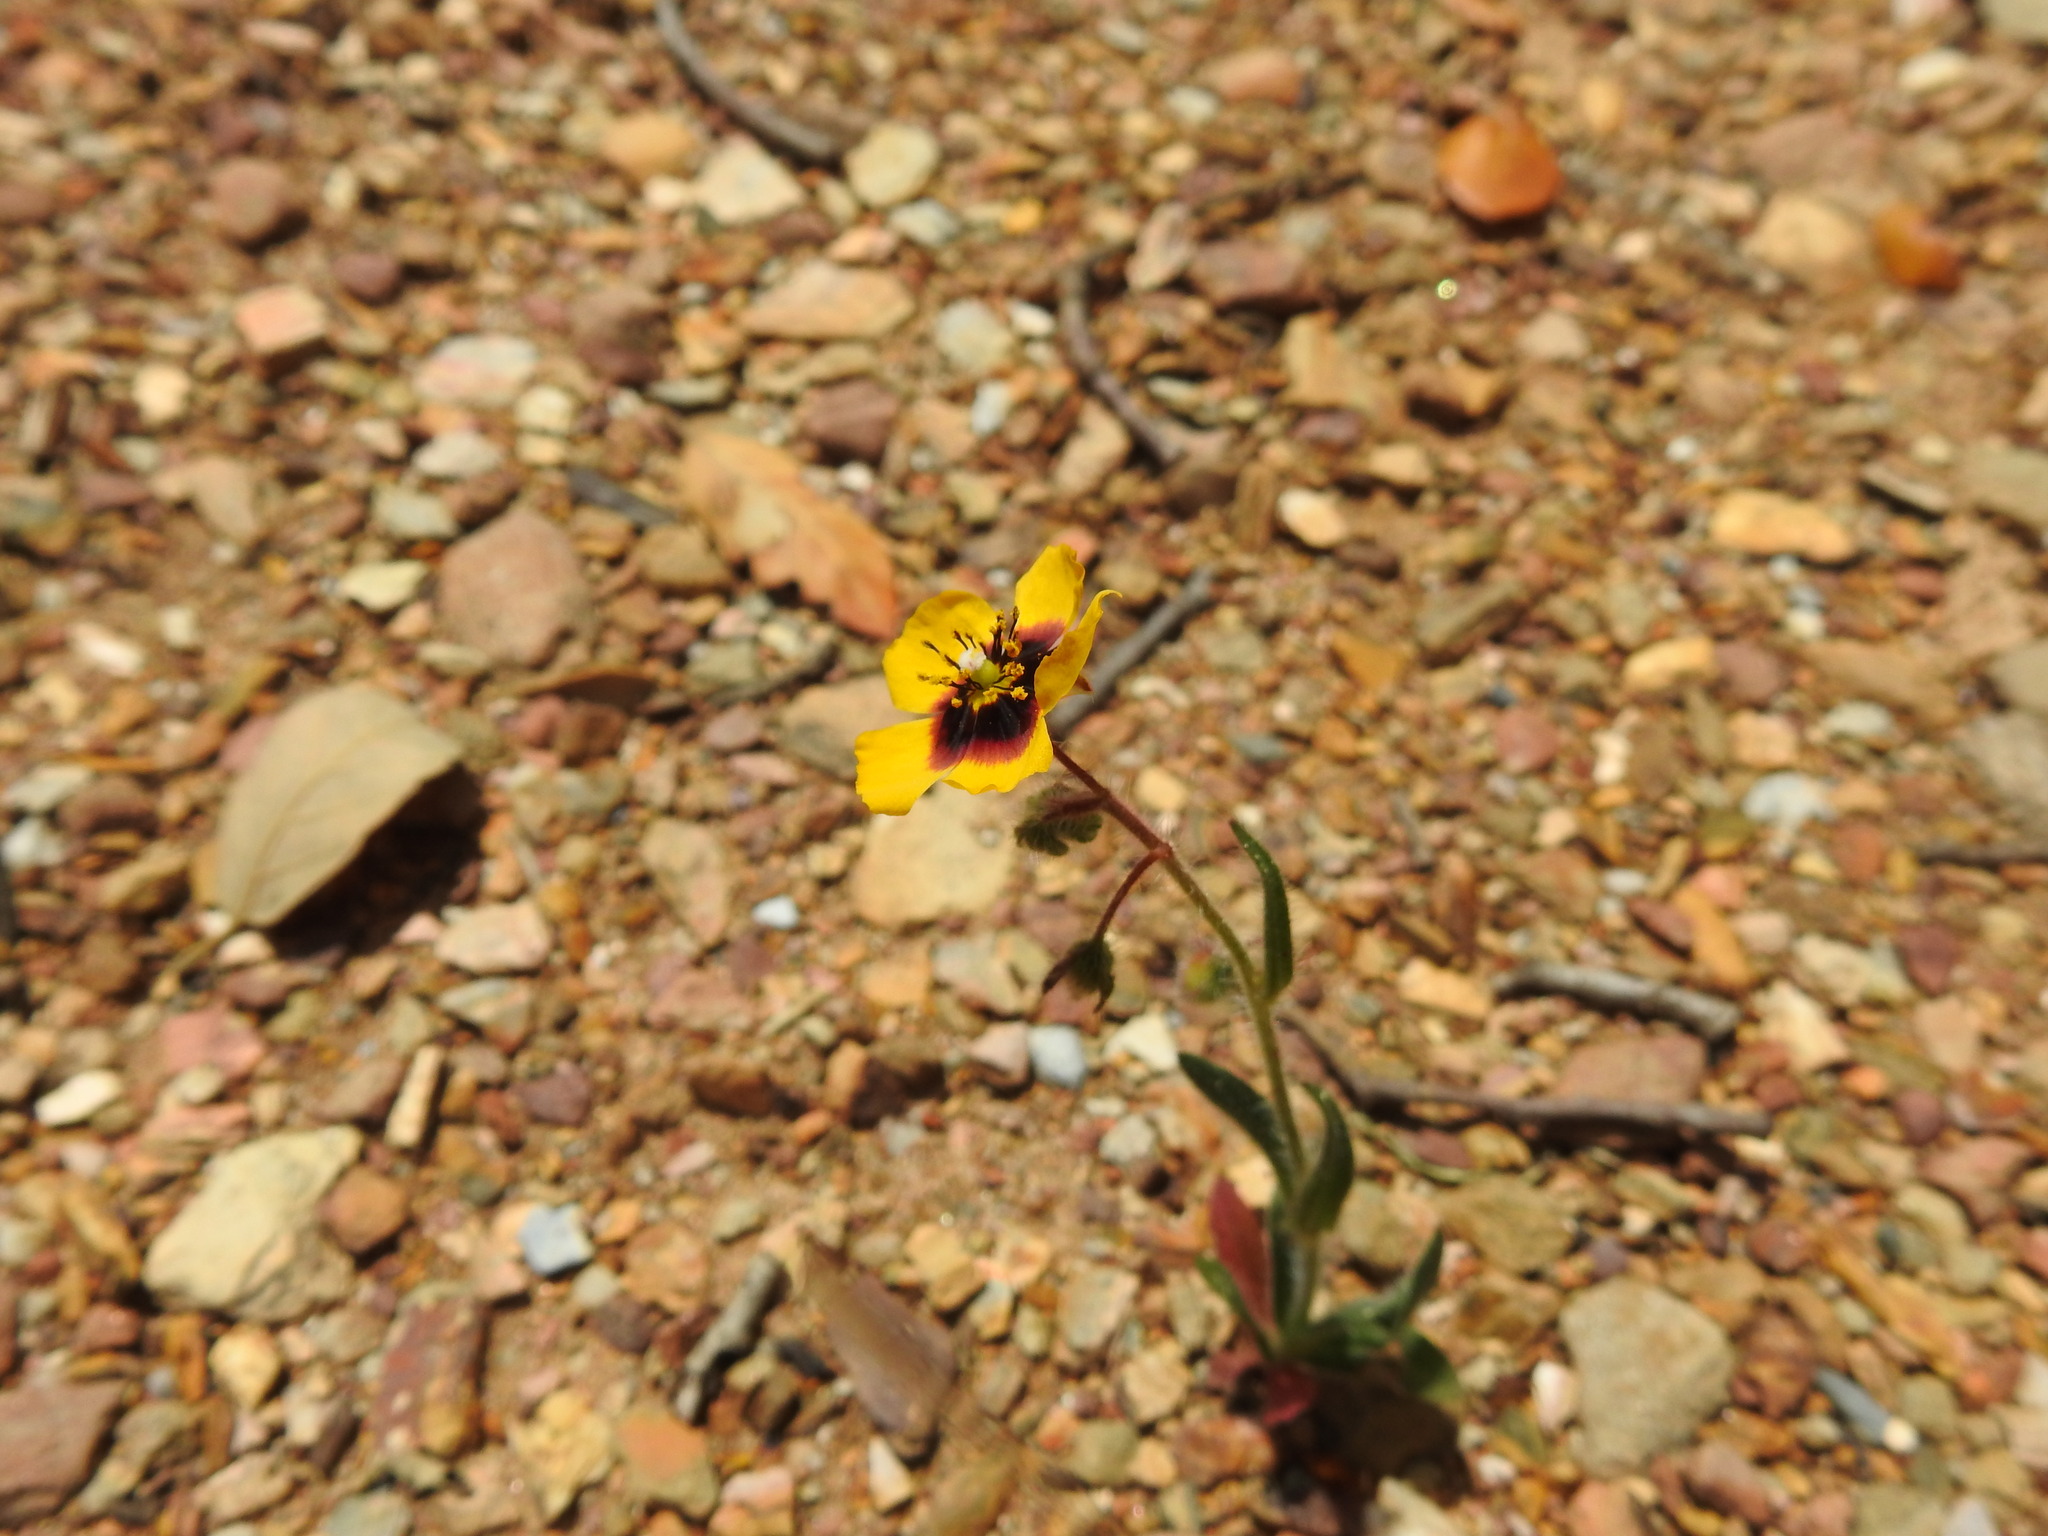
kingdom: Plantae
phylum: Tracheophyta
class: Magnoliopsida
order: Malvales
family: Cistaceae
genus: Tuberaria
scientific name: Tuberaria guttata
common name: Spotted rock-rose
